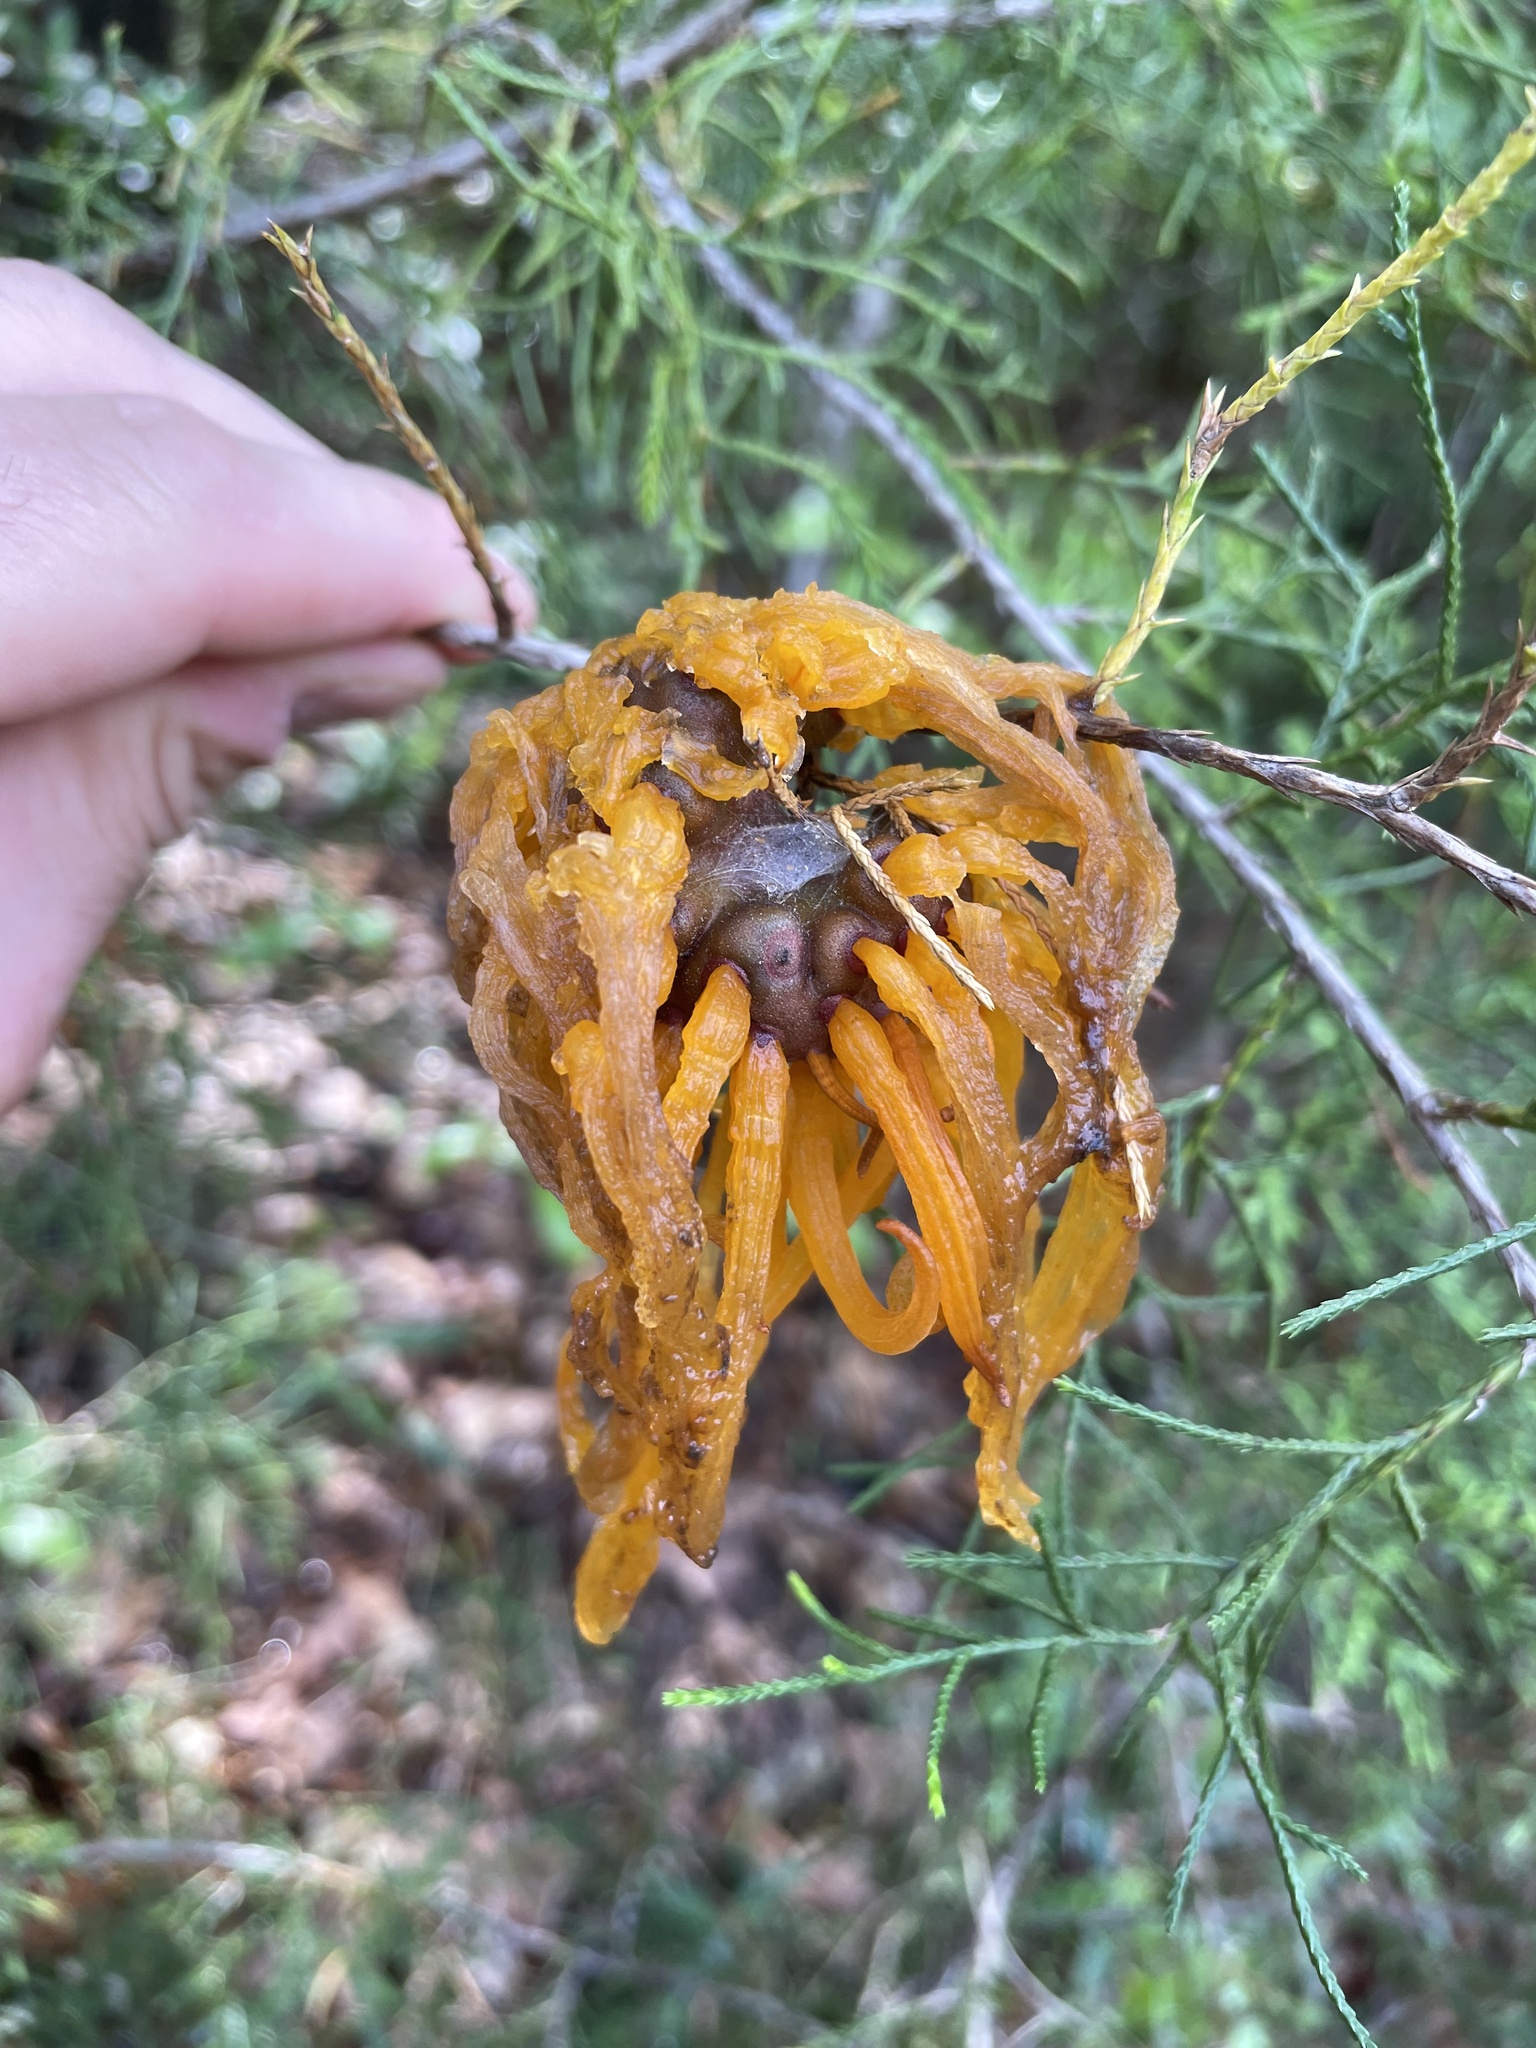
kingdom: Fungi
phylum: Basidiomycota
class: Pucciniomycetes
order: Pucciniales
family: Gymnosporangiaceae
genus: Gymnosporangium
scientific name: Gymnosporangium juniperi-virginianae
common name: Juniper-apple rust
